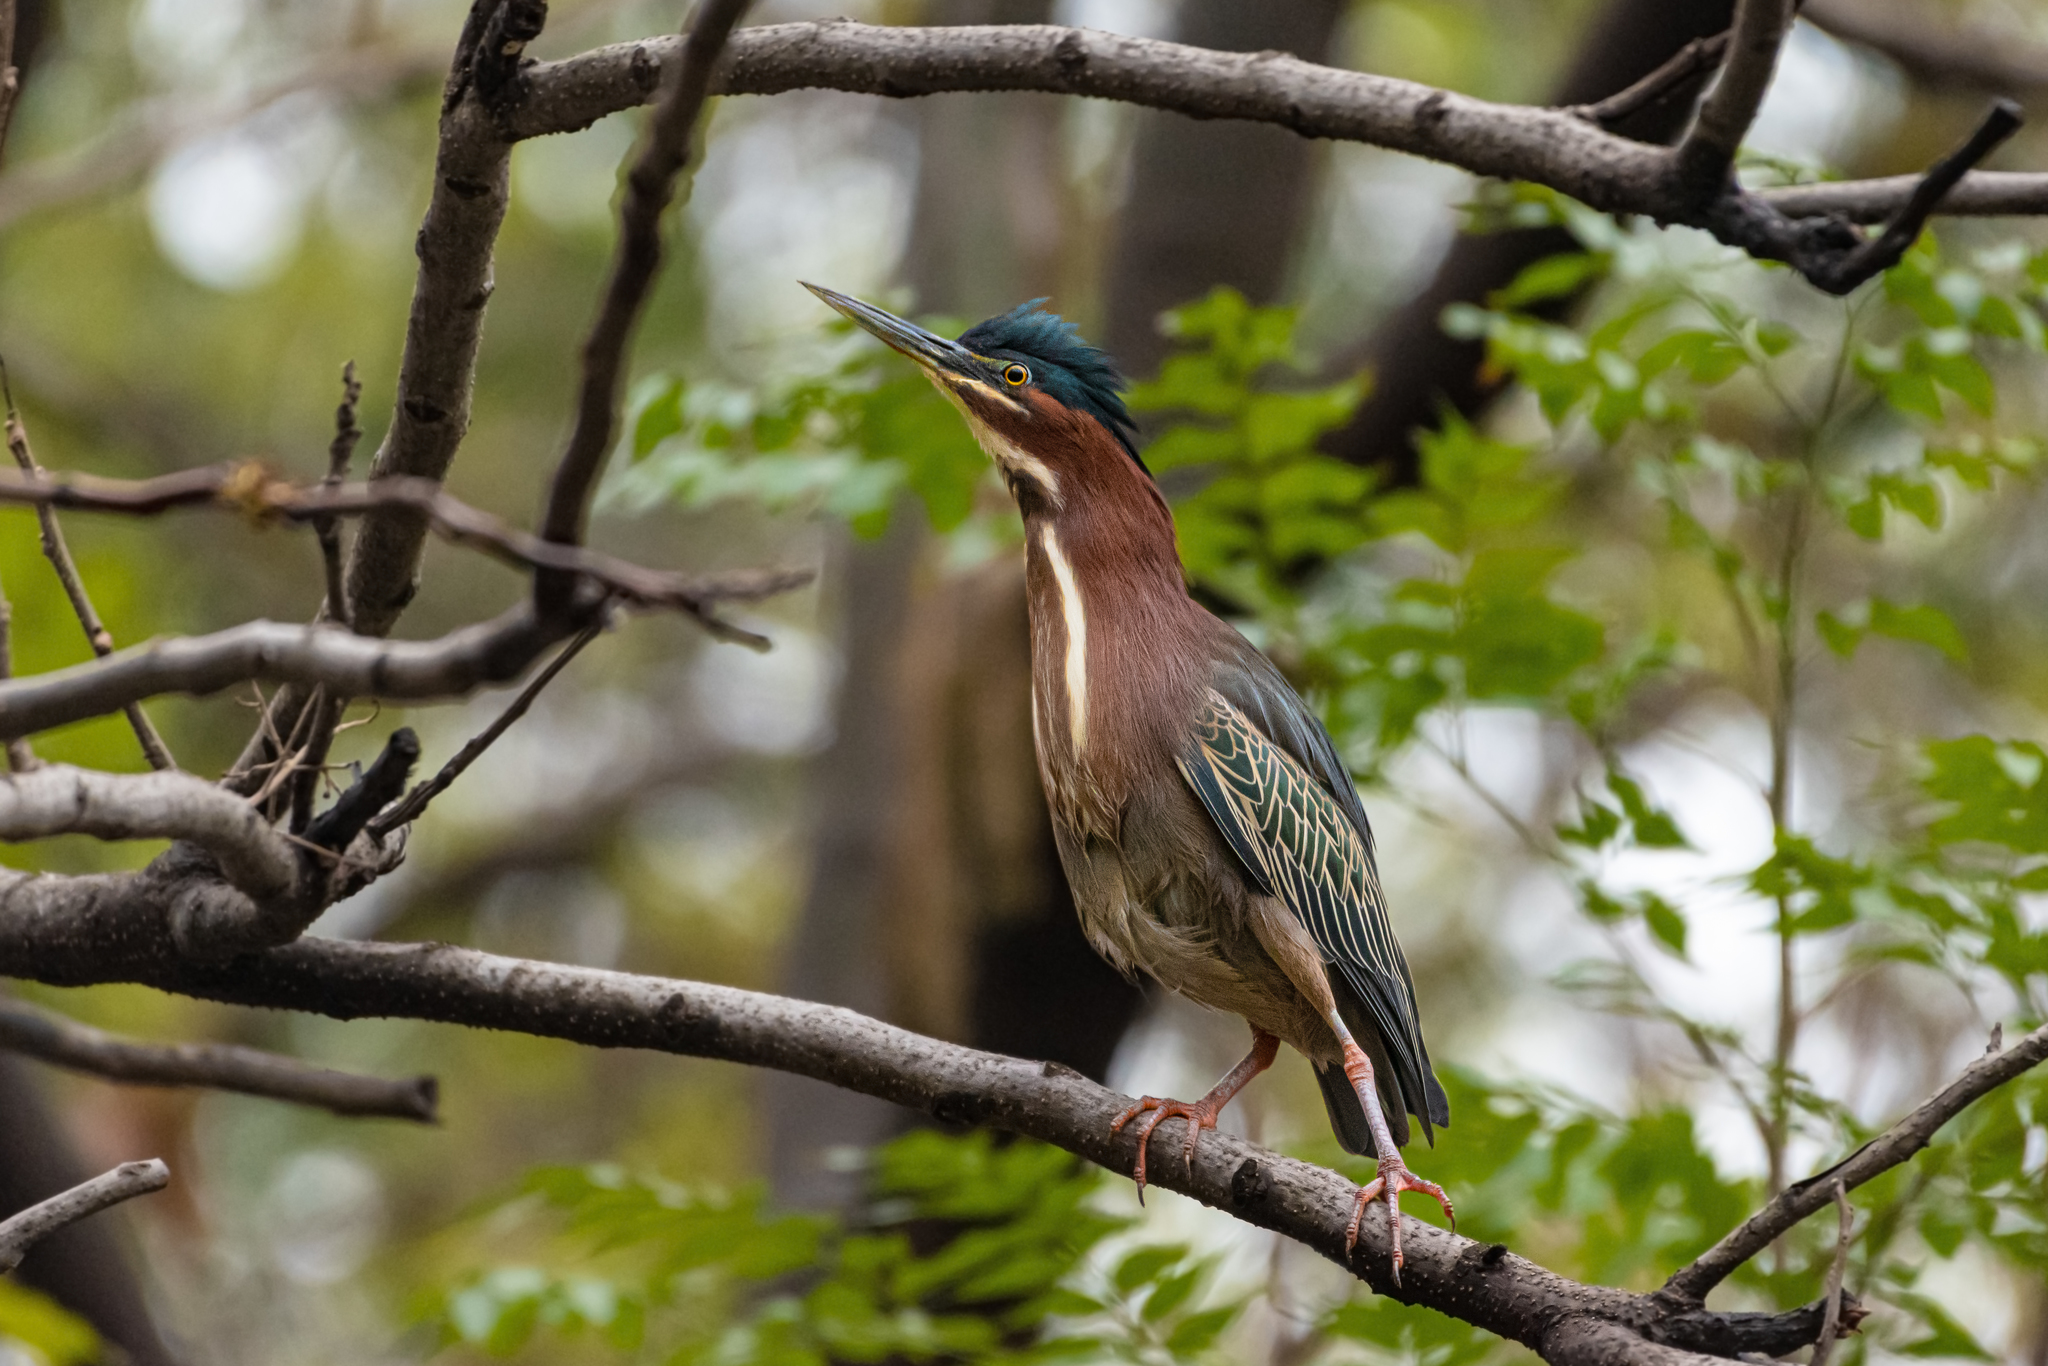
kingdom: Animalia
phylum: Chordata
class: Aves
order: Pelecaniformes
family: Ardeidae
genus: Butorides
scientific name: Butorides virescens
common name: Green heron
